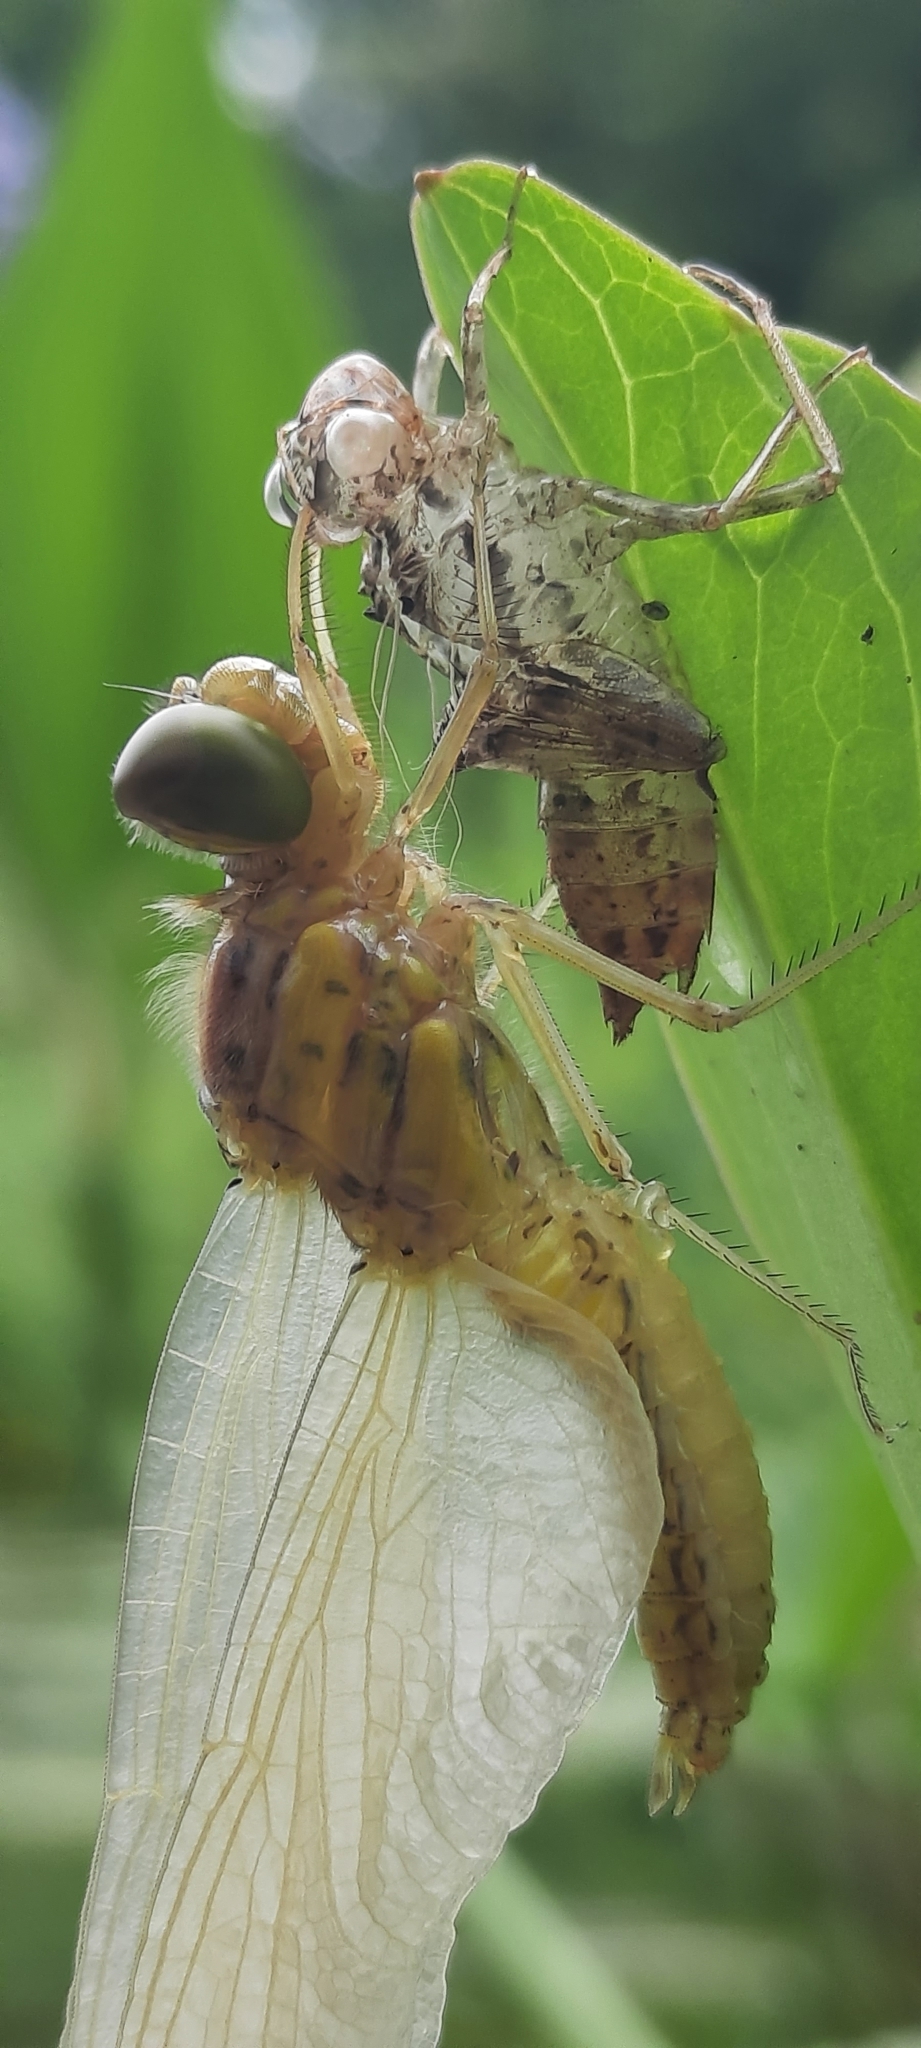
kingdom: Animalia
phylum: Arthropoda
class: Insecta
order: Odonata
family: Libellulidae
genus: Sympetrum
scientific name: Sympetrum striolatum
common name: Common darter
